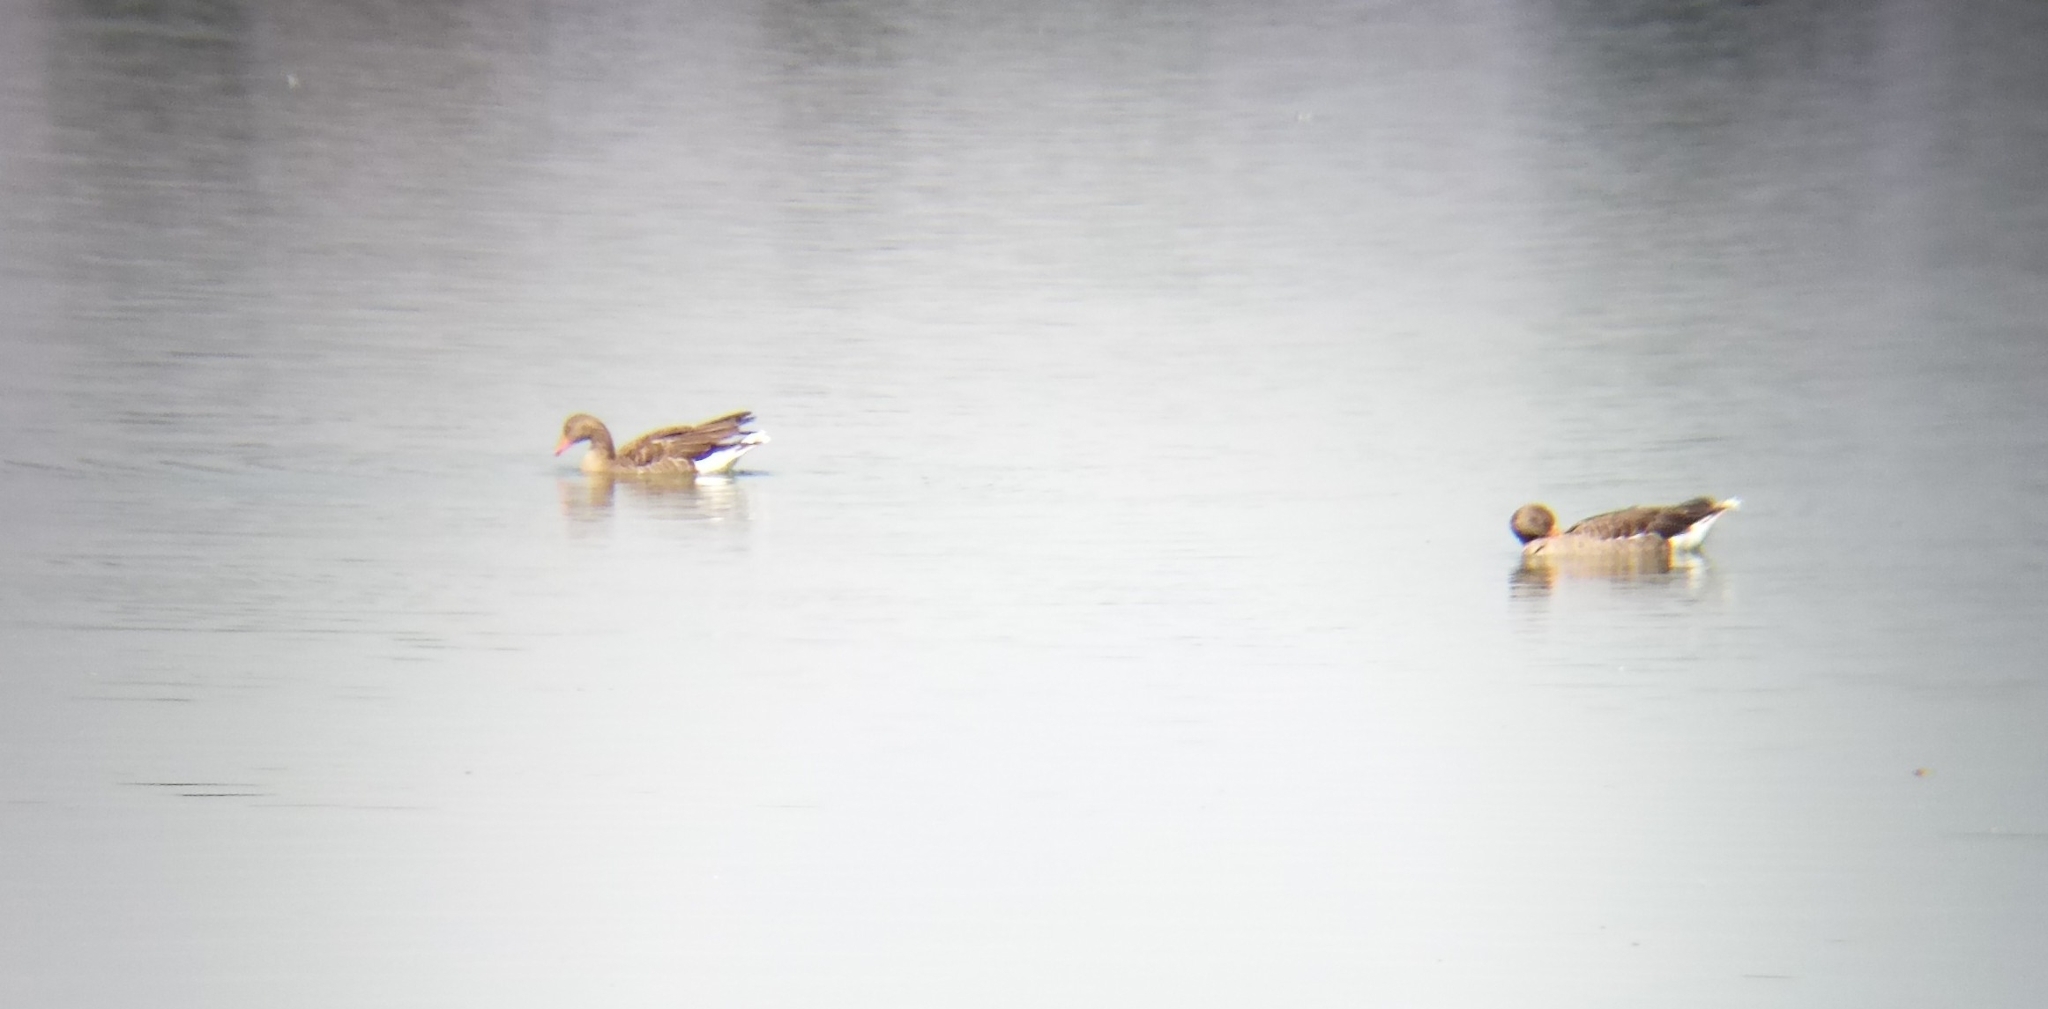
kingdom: Animalia
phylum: Chordata
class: Aves
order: Anseriformes
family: Anatidae
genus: Anser
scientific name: Anser anser
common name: Greylag goose
